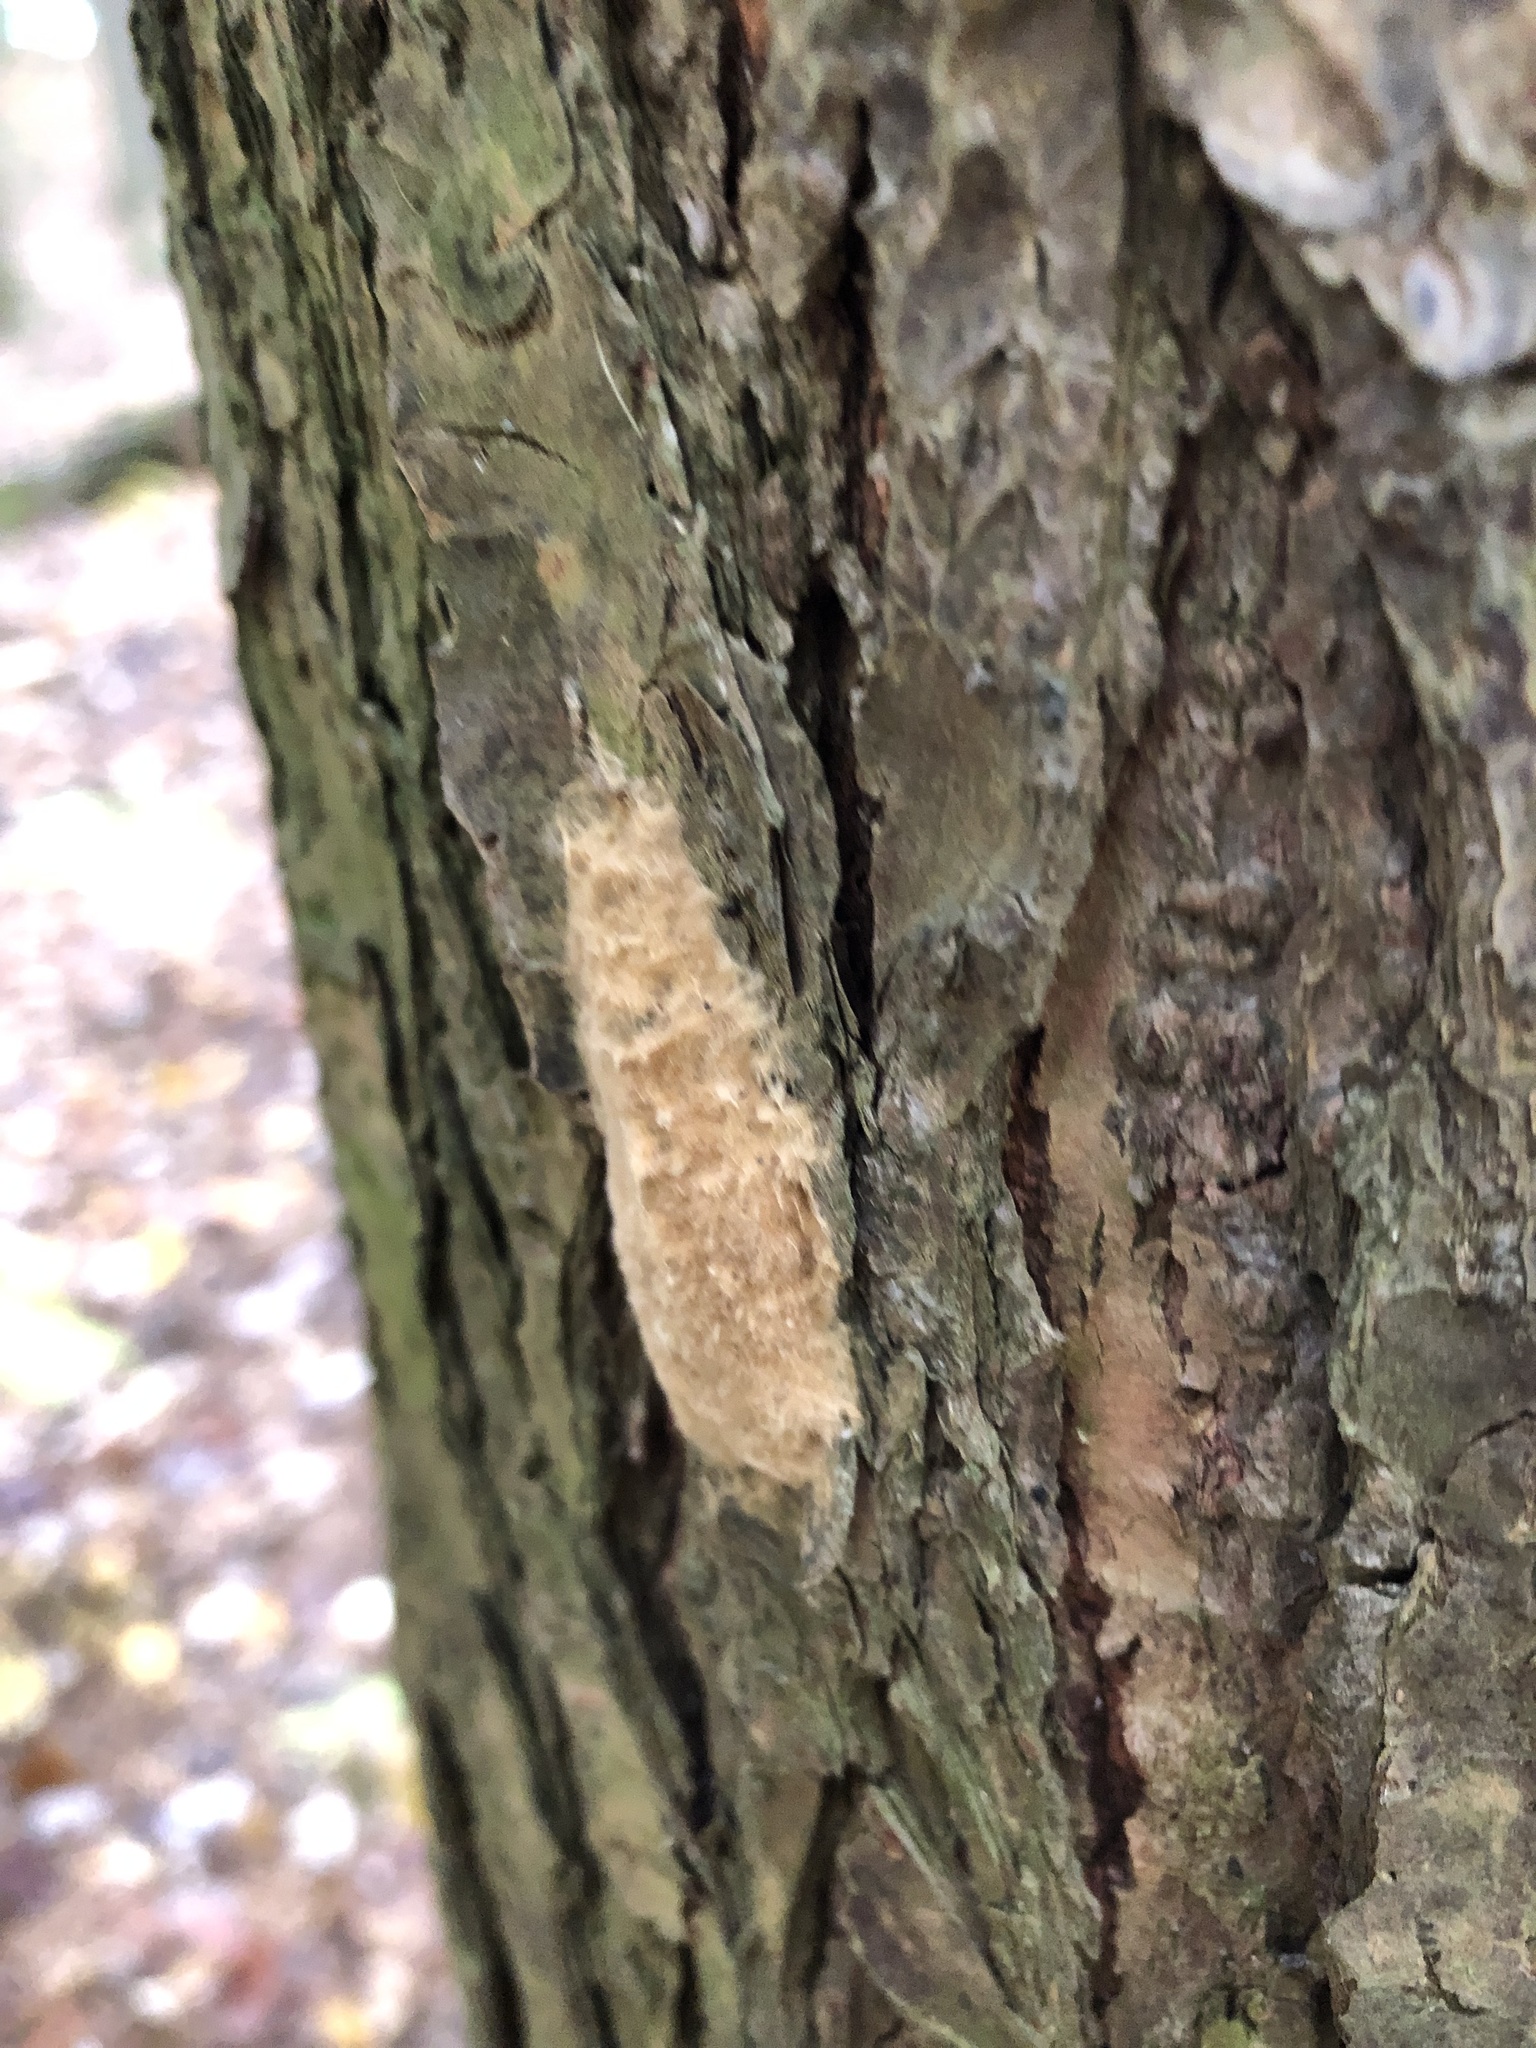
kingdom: Animalia
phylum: Arthropoda
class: Insecta
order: Lepidoptera
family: Erebidae
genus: Lymantria
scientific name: Lymantria dispar
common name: Gypsy moth
